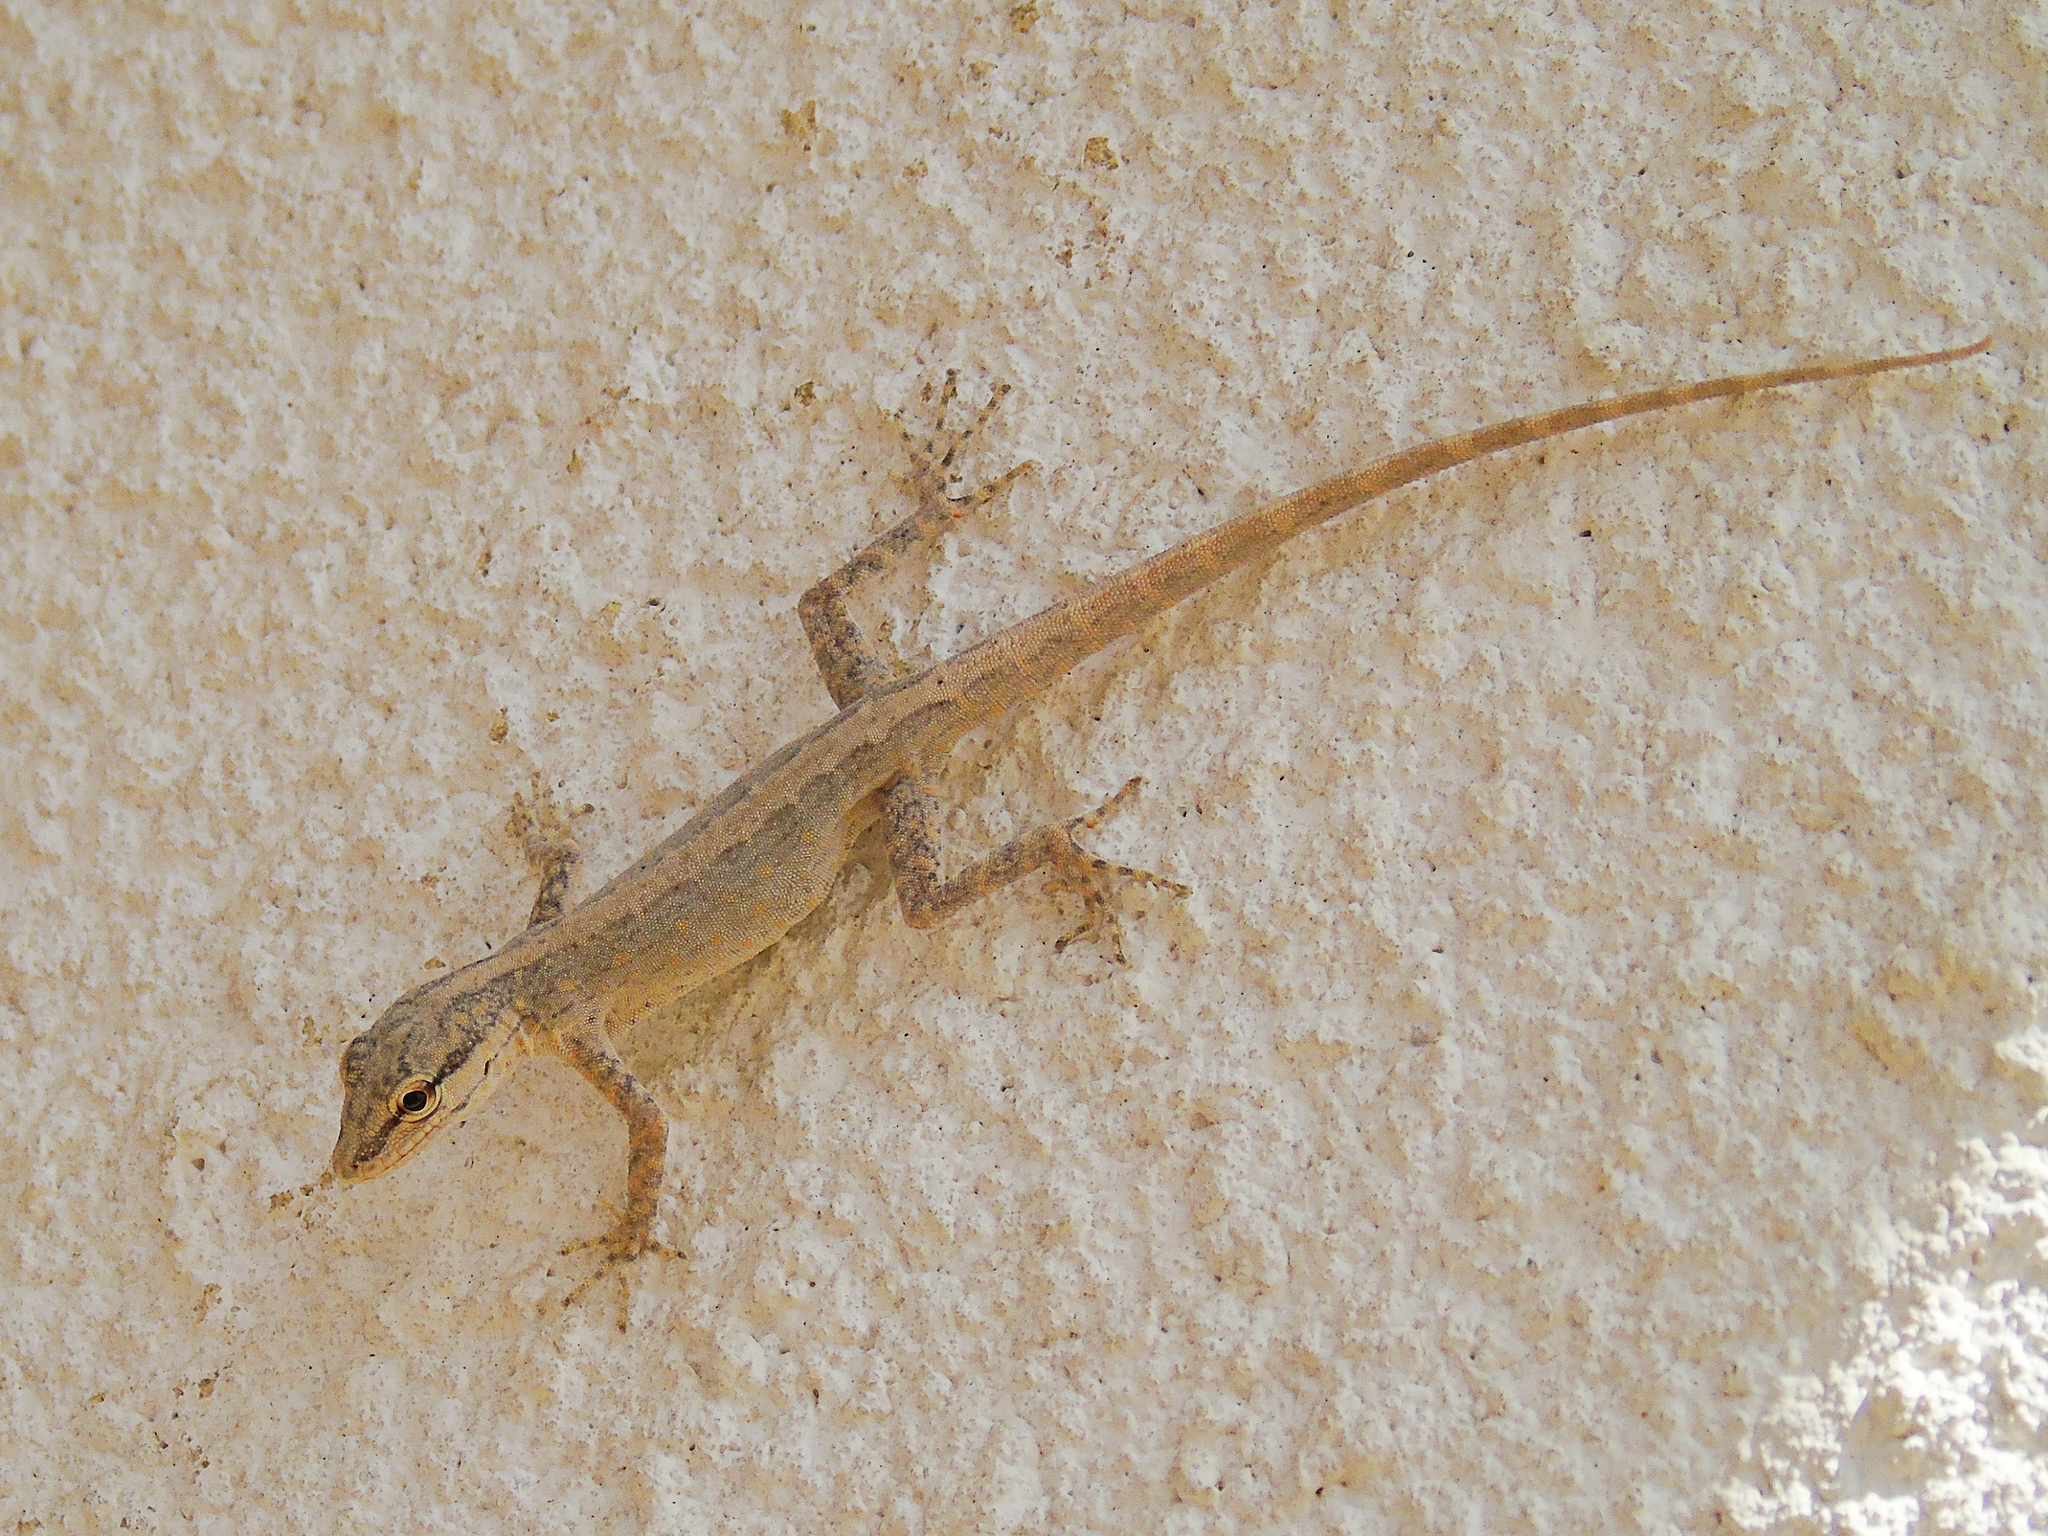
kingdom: Animalia
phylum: Chordata
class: Squamata
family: Sphaerodactylidae
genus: Pristurus
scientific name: Pristurus gallagheri
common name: Gallagher’s rock gecko
